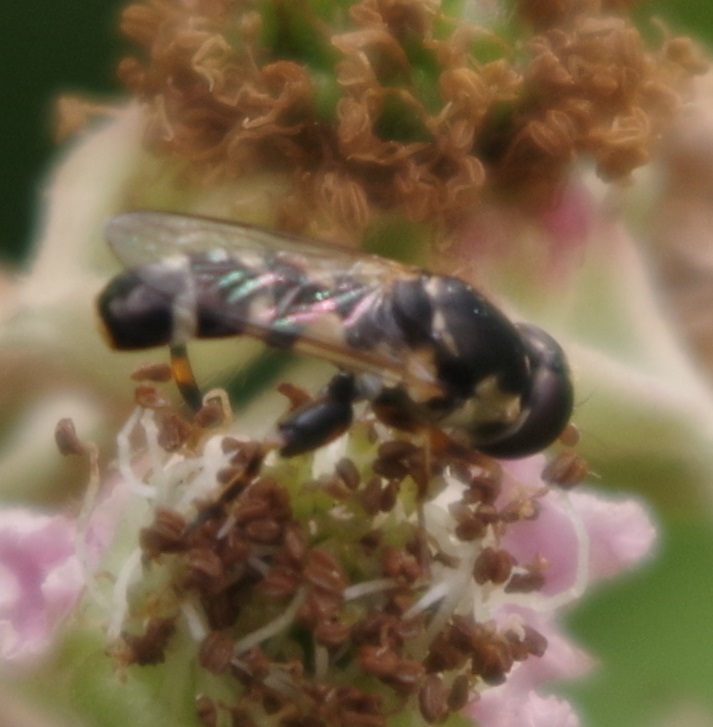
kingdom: Animalia
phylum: Arthropoda
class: Insecta
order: Diptera
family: Syrphidae
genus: Syritta
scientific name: Syritta pipiens
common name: Hover fly
